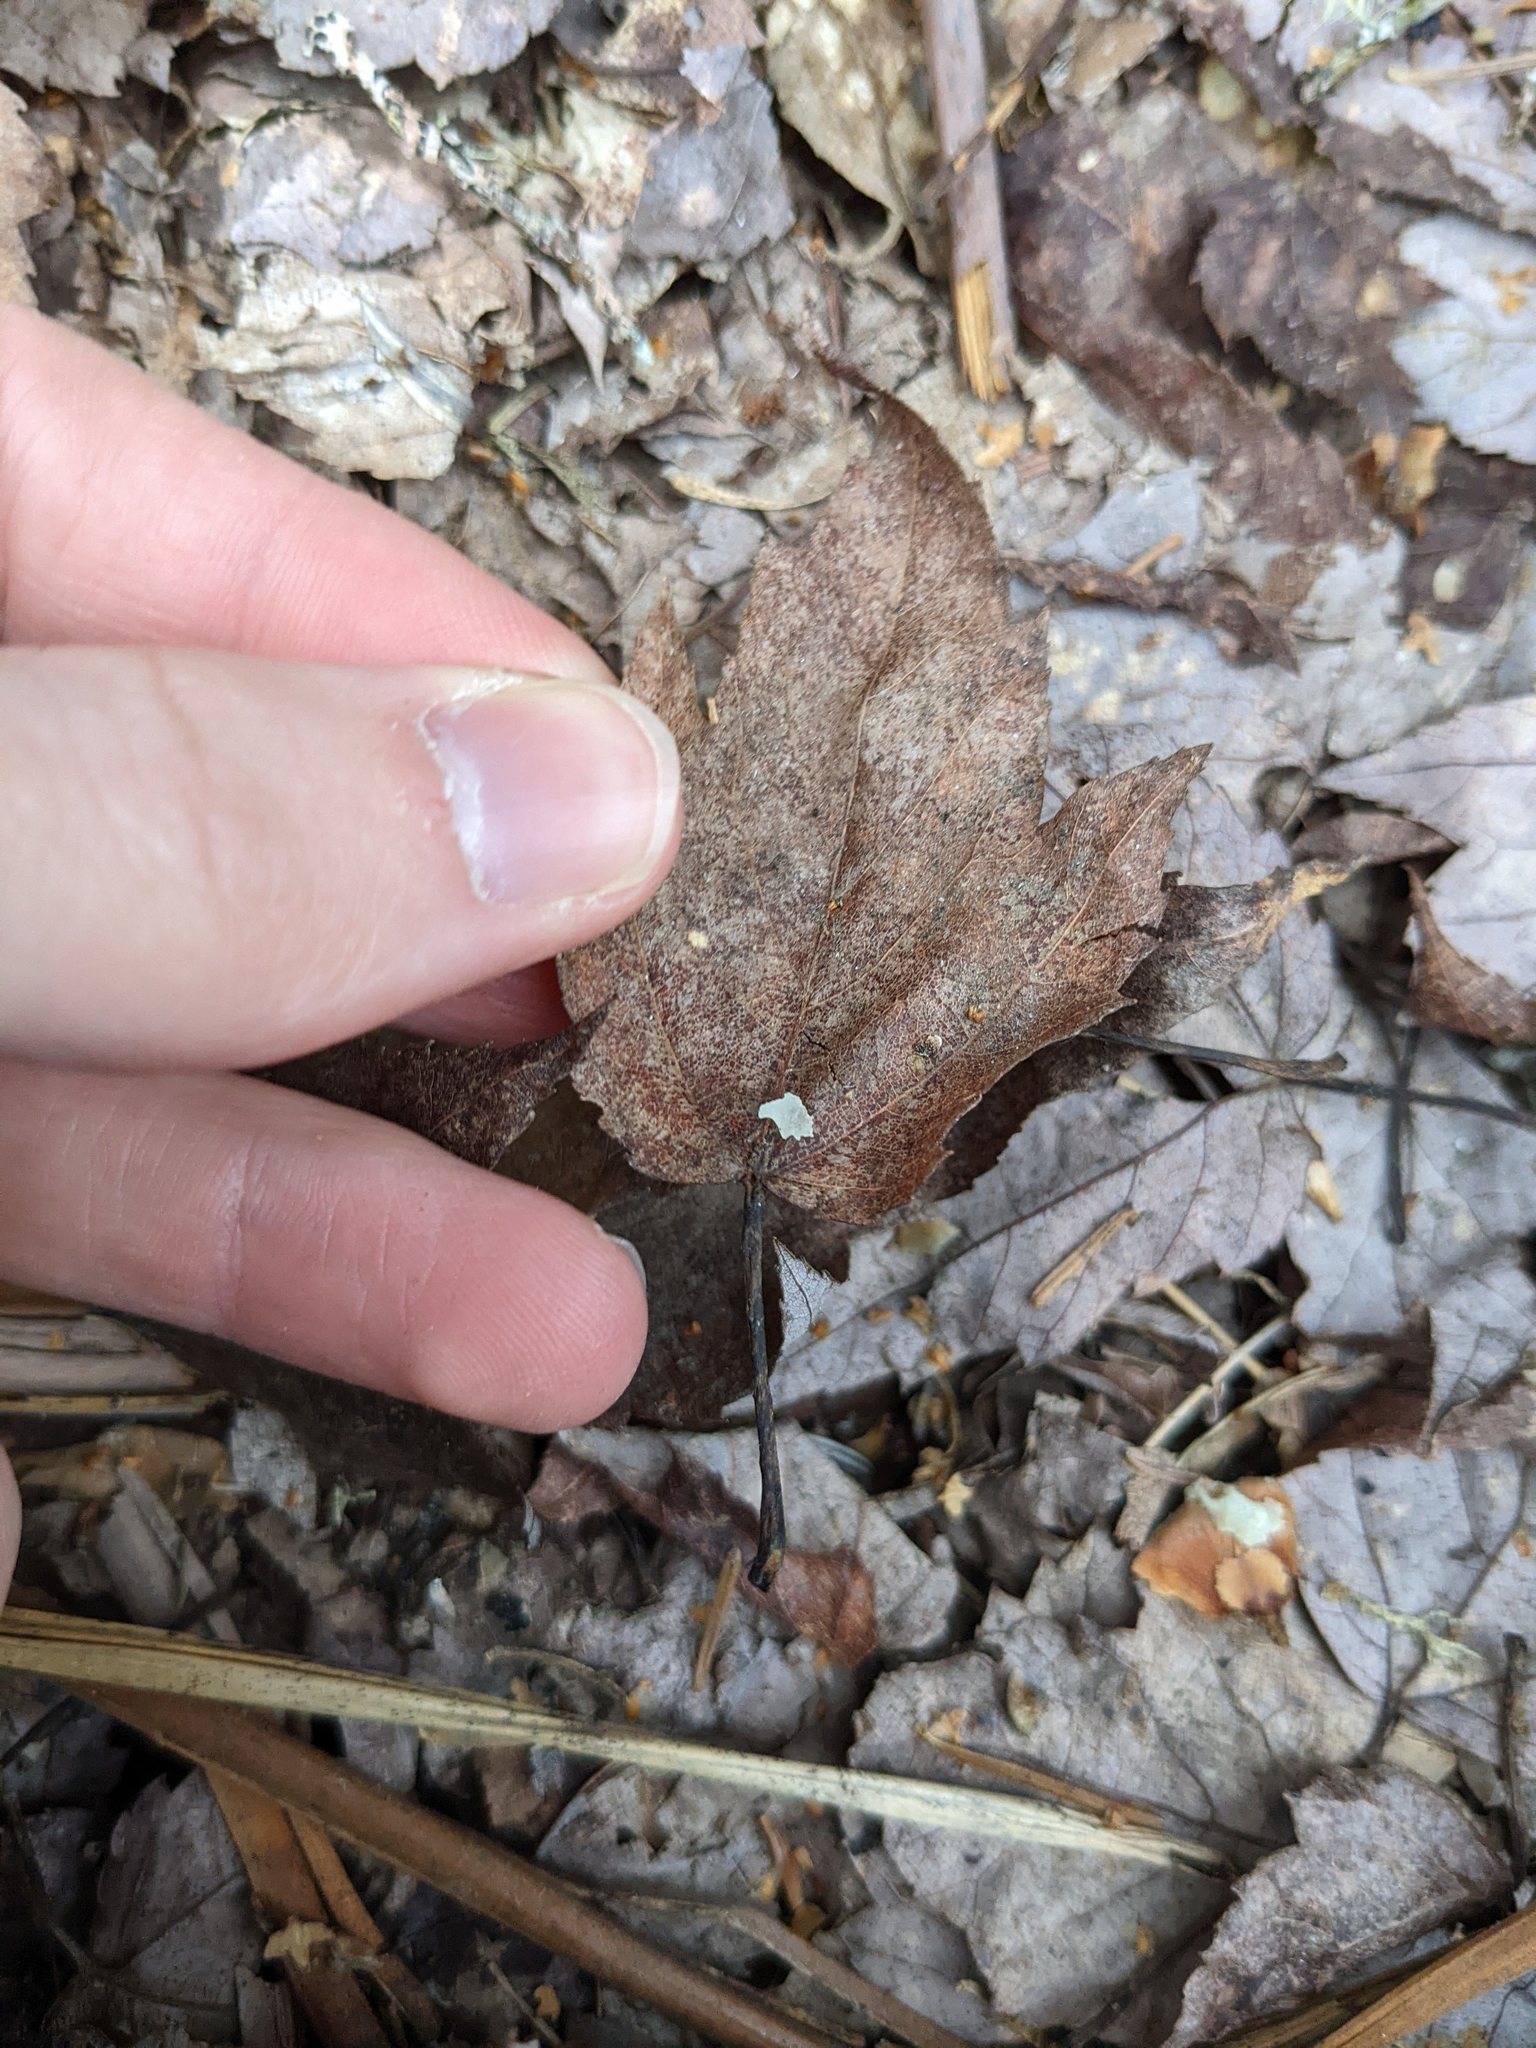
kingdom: Plantae
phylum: Tracheophyta
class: Magnoliopsida
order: Sapindales
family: Sapindaceae
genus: Acer
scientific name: Acer rubrum
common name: Red maple
